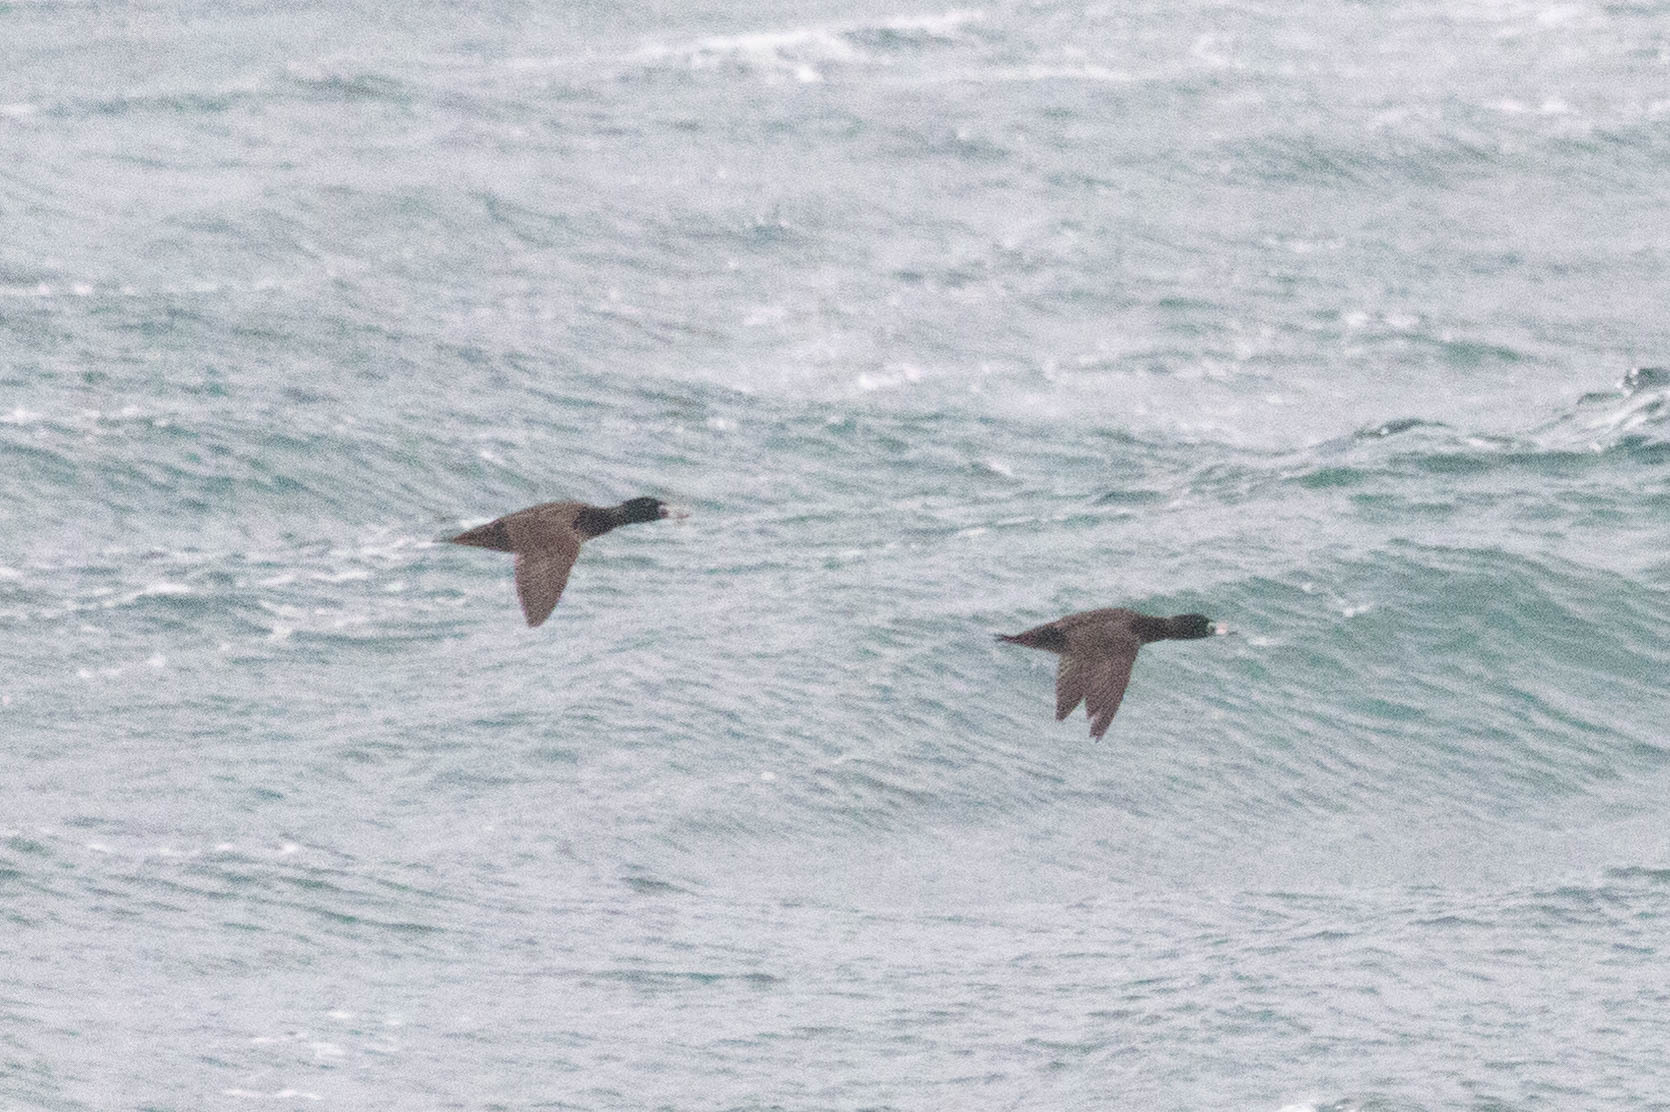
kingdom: Animalia
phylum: Chordata
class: Aves
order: Anseriformes
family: Anatidae
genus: Melanitta
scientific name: Melanitta perspicillata
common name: Surf scoter
